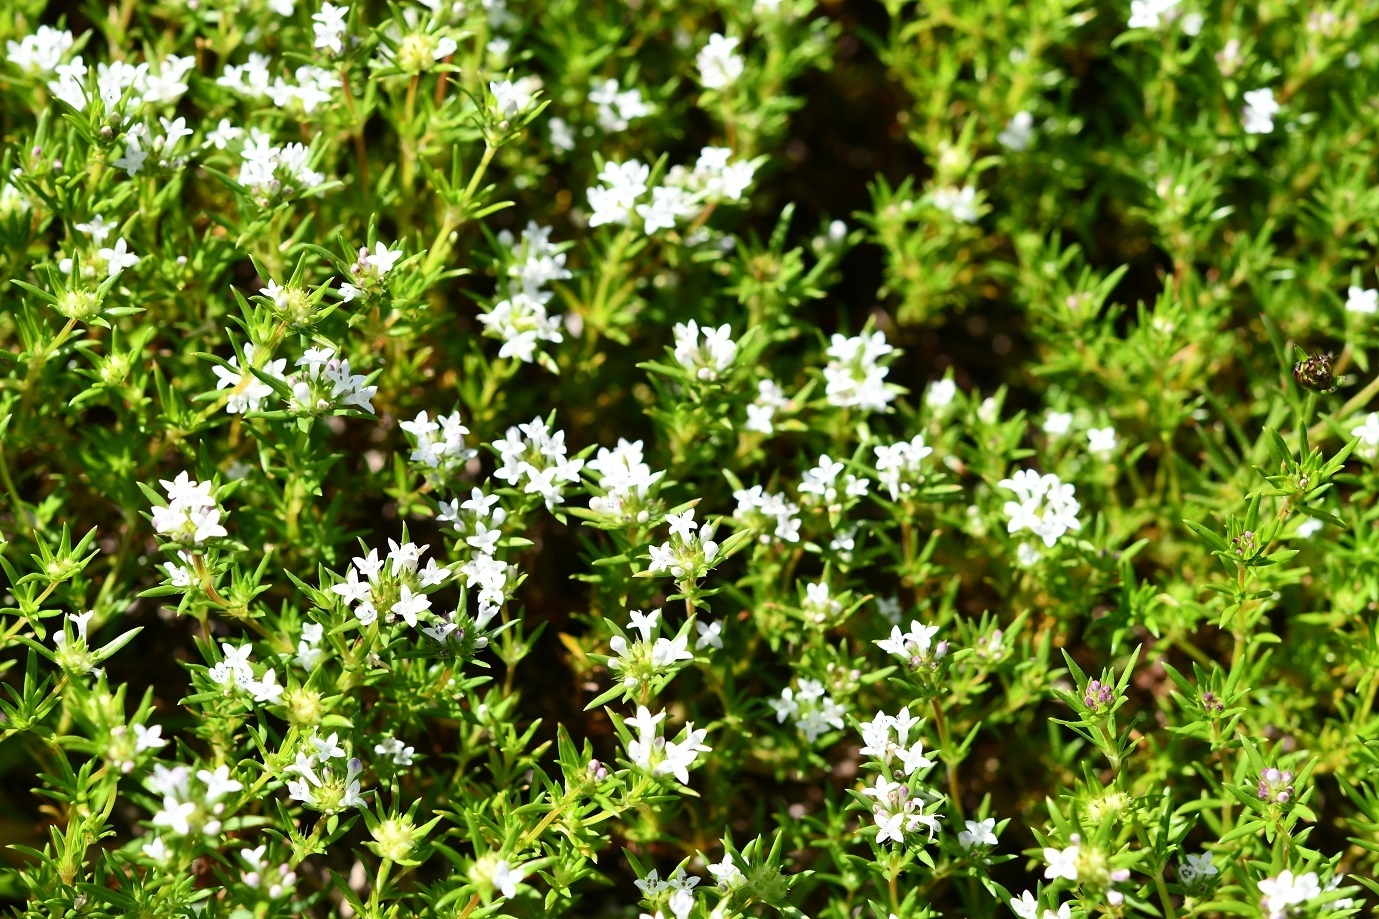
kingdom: Plantae
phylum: Tracheophyta
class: Magnoliopsida
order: Gentianales
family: Rubiaceae
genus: Crusea
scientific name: Crusea simplex
